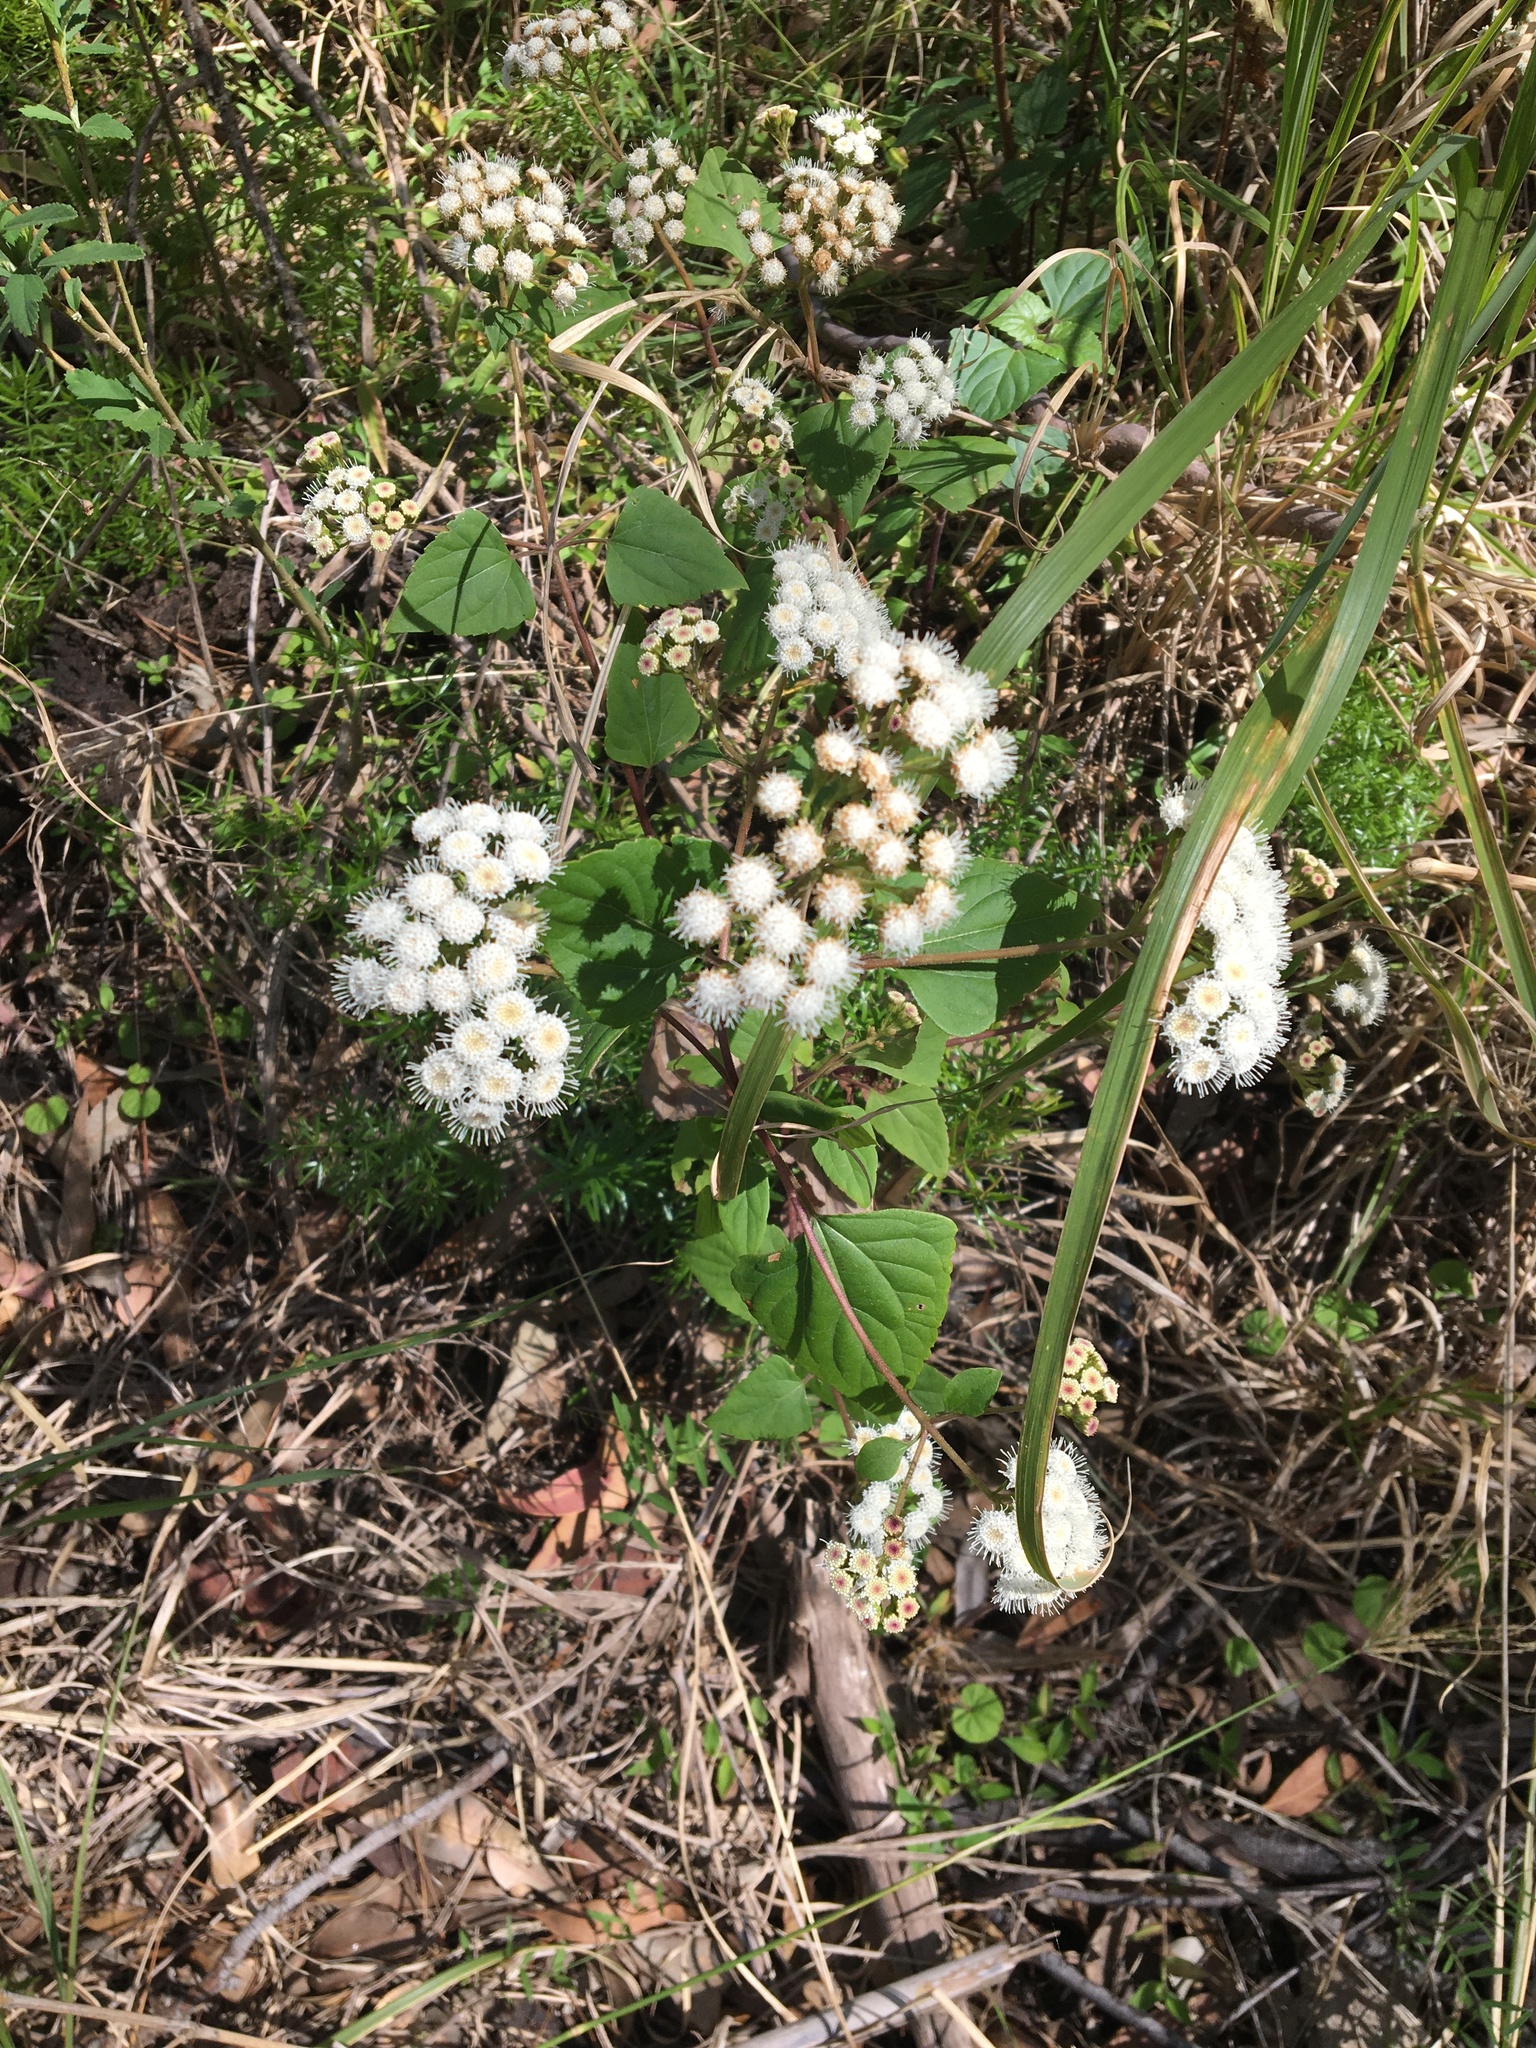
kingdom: Plantae
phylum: Tracheophyta
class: Magnoliopsida
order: Asterales
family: Asteraceae
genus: Ageratina
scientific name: Ageratina adenophora
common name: Sticky snakeroot
